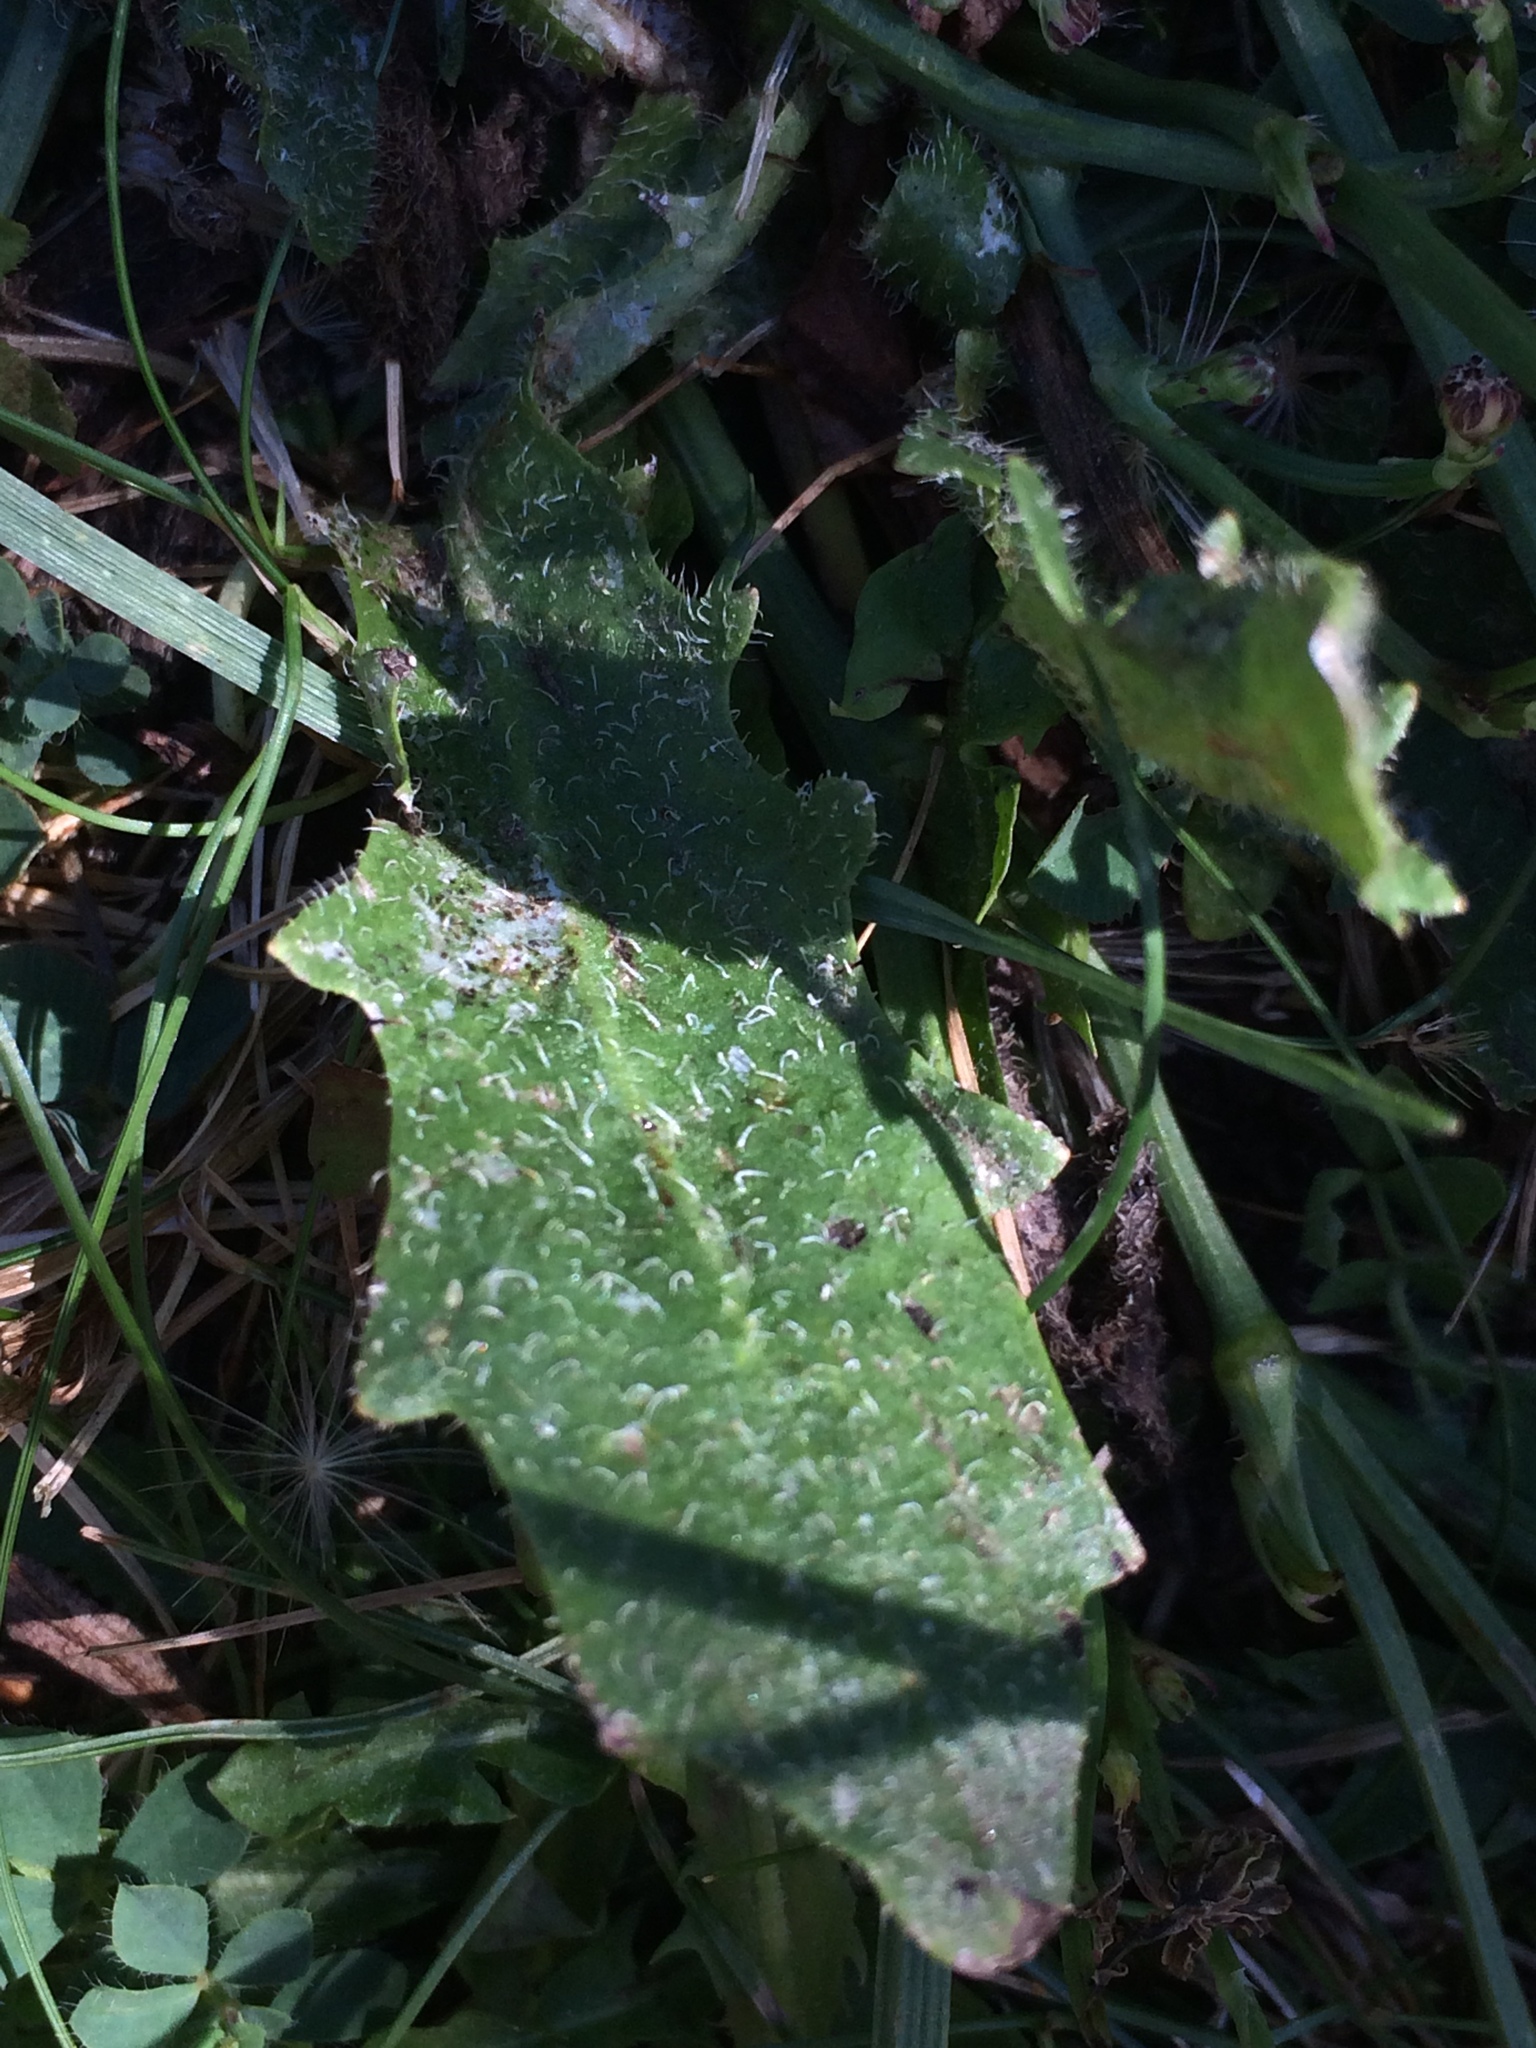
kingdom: Plantae
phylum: Tracheophyta
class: Magnoliopsida
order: Asterales
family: Asteraceae
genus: Hypochaeris
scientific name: Hypochaeris radicata
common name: Flatweed
